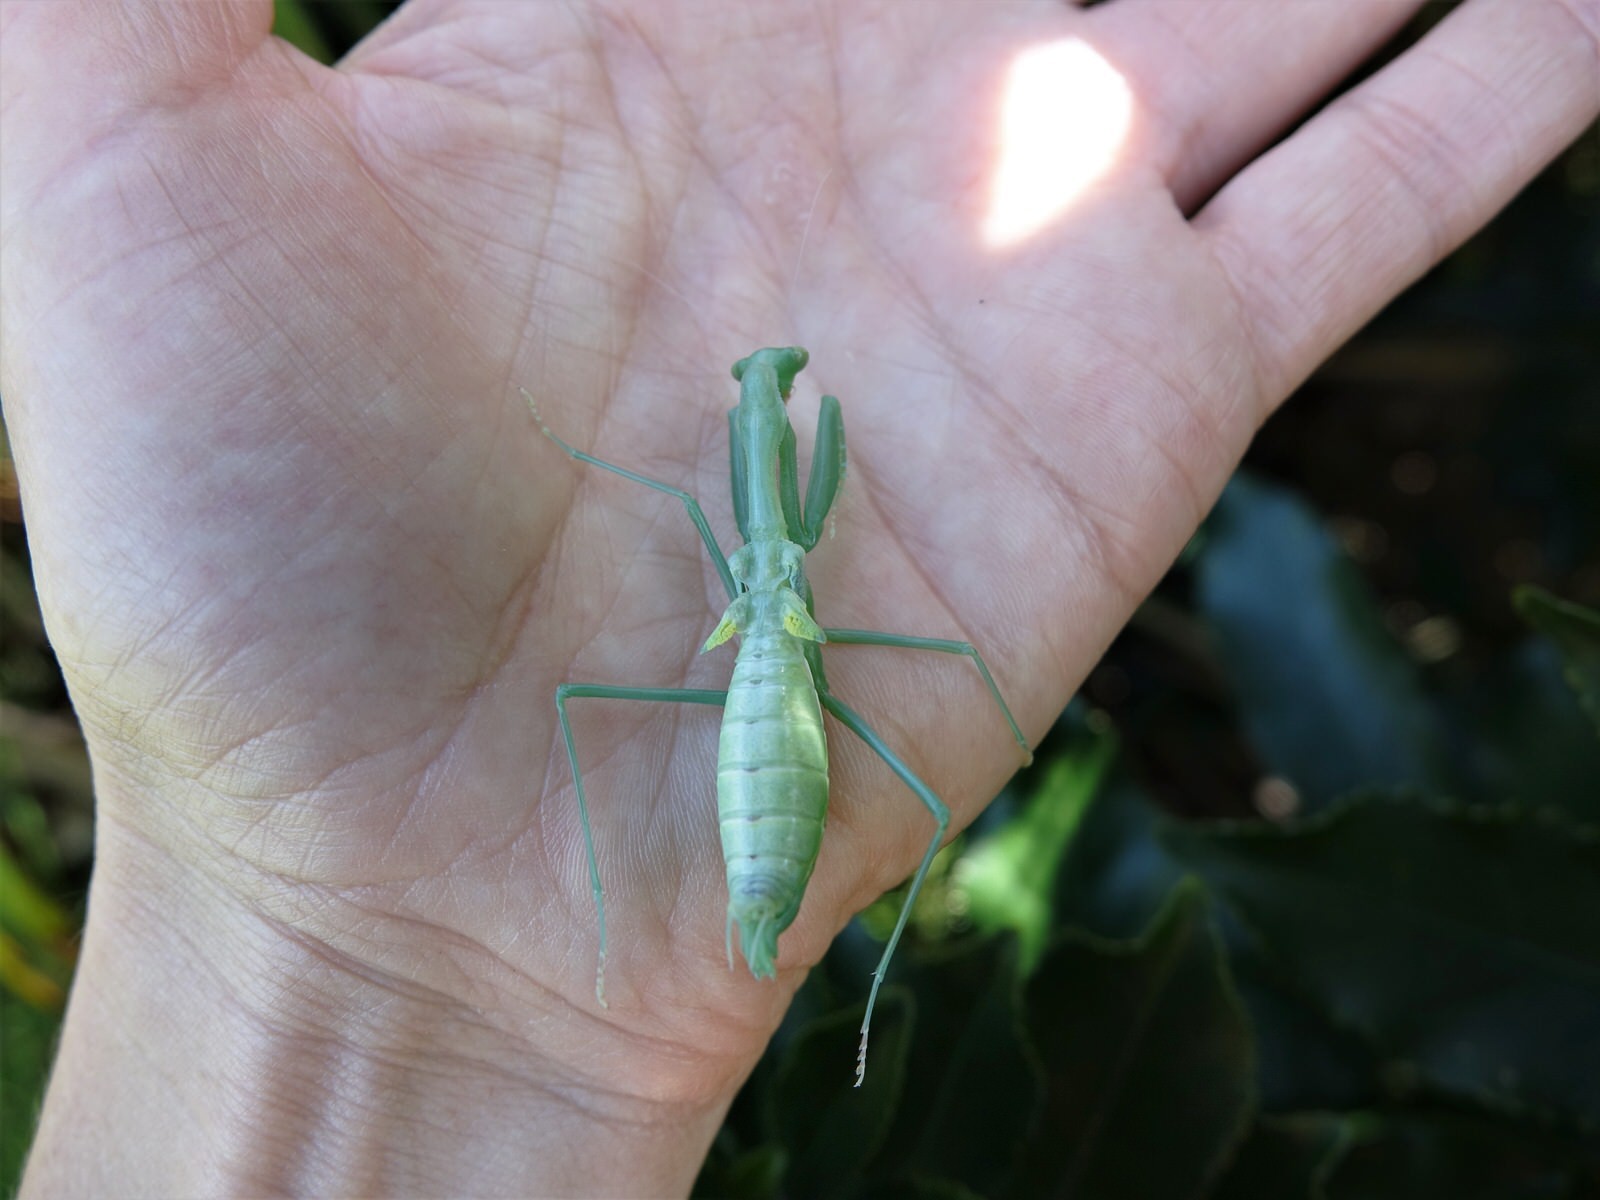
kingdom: Animalia
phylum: Arthropoda
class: Insecta
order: Mantodea
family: Miomantidae
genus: Miomantis
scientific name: Miomantis caffra
